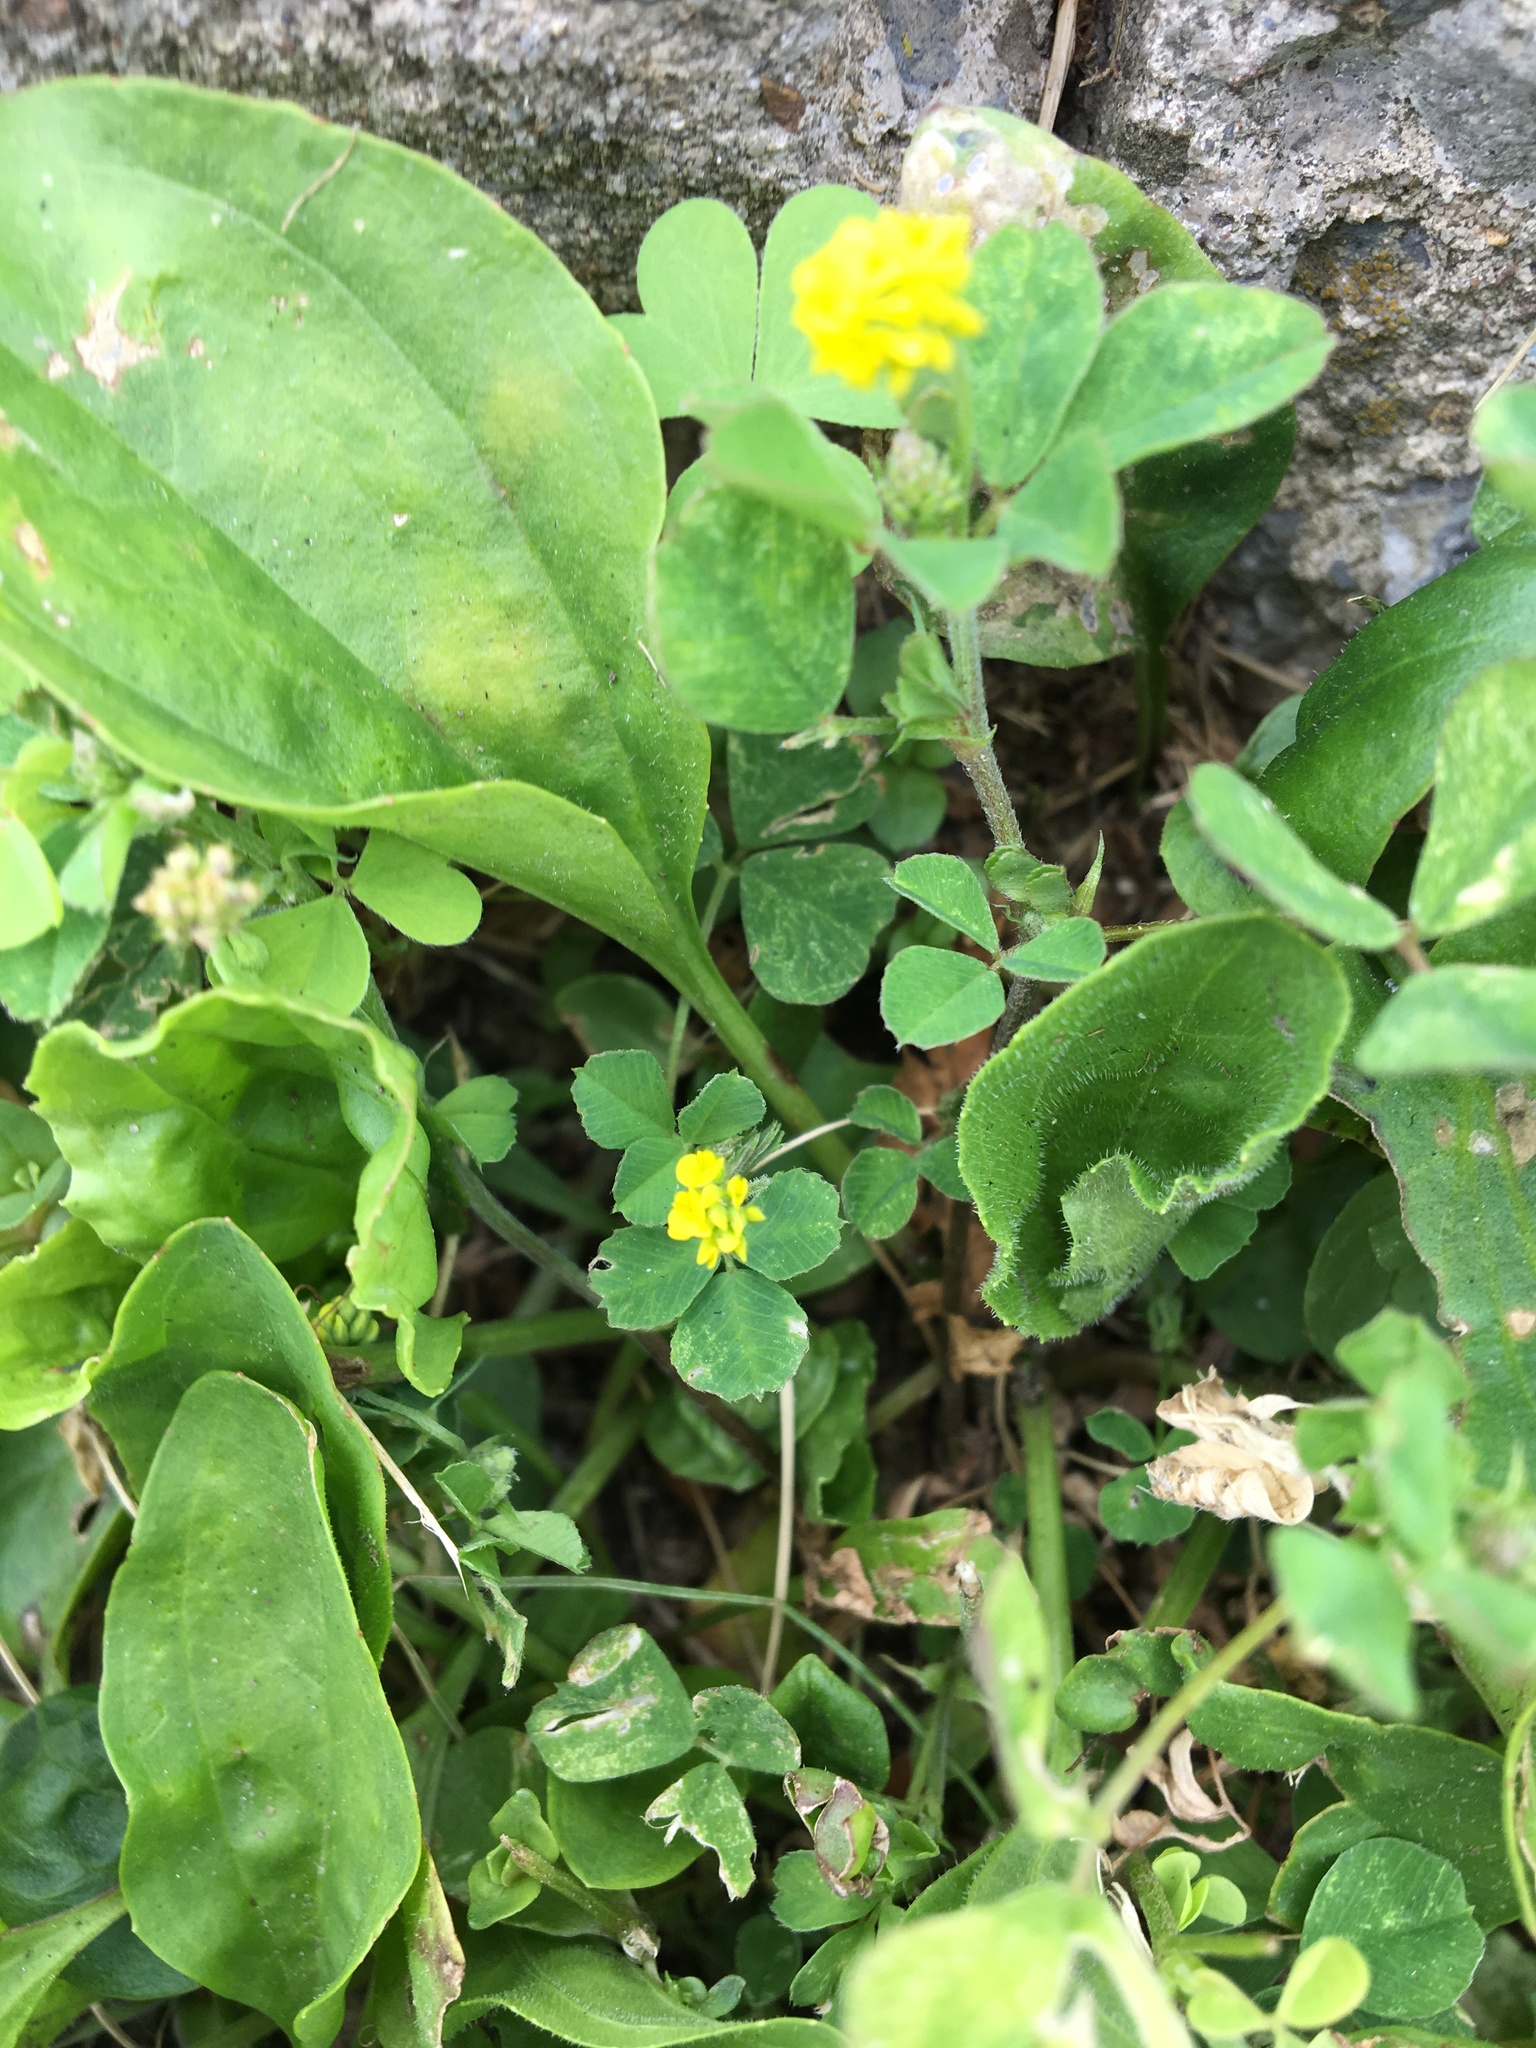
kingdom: Plantae
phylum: Tracheophyta
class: Magnoliopsida
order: Fabales
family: Fabaceae
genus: Medicago
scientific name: Medicago lupulina
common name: Black medick
